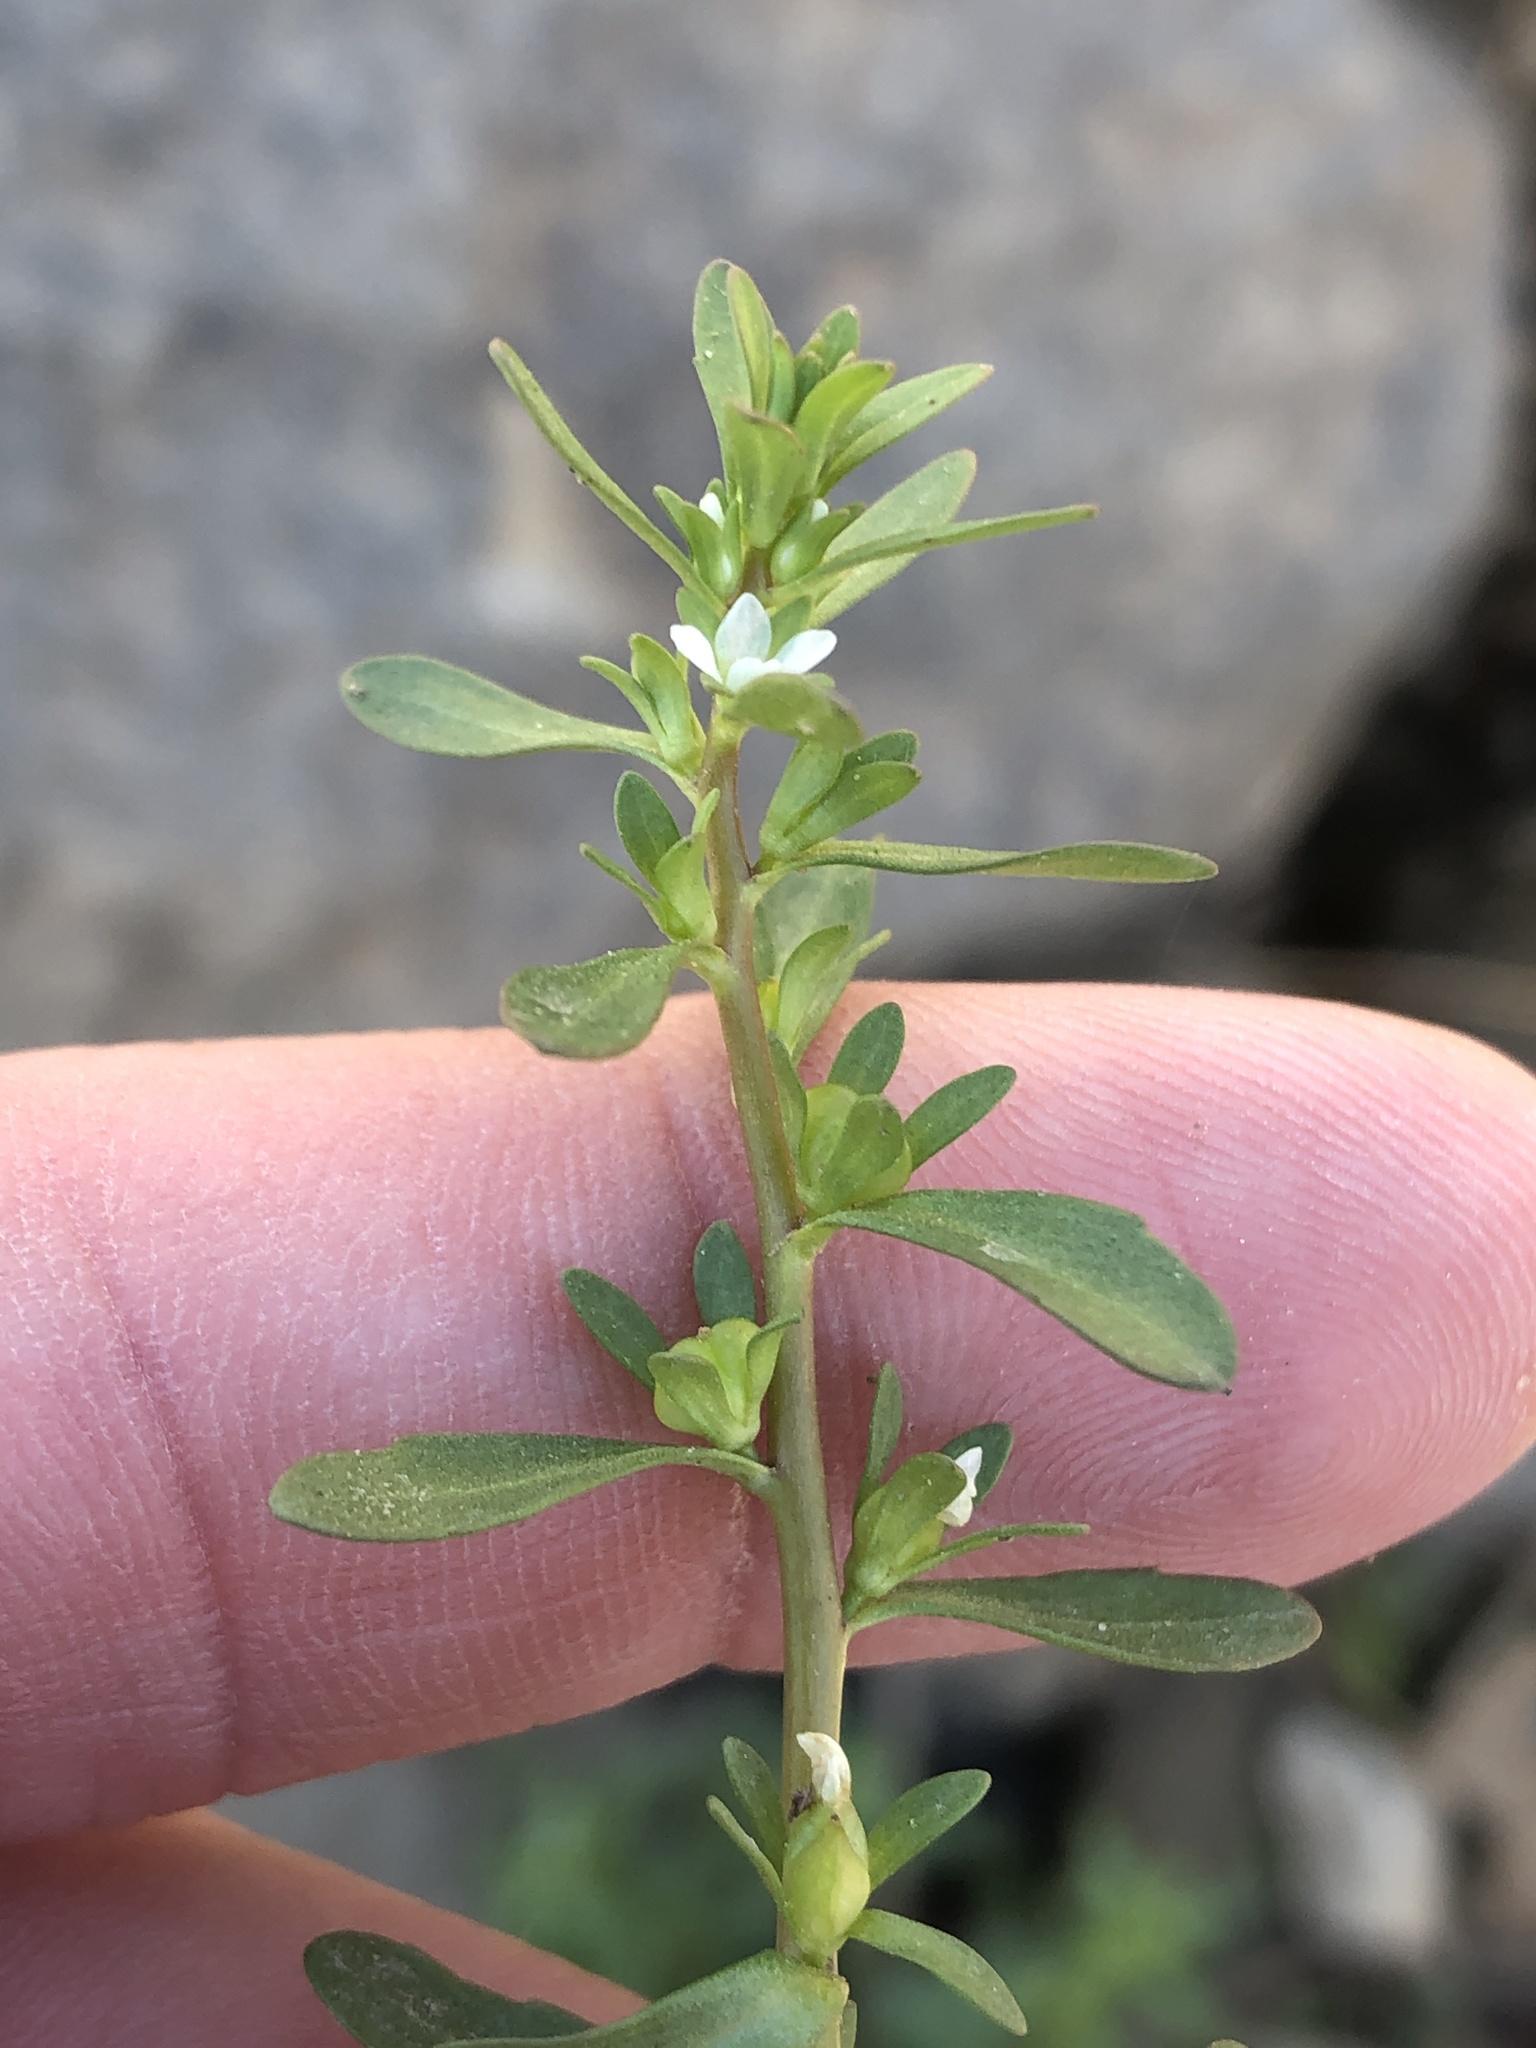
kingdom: Plantae
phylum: Tracheophyta
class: Magnoliopsida
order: Lamiales
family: Plantaginaceae
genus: Veronica
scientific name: Veronica peregrina
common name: Neckweed
